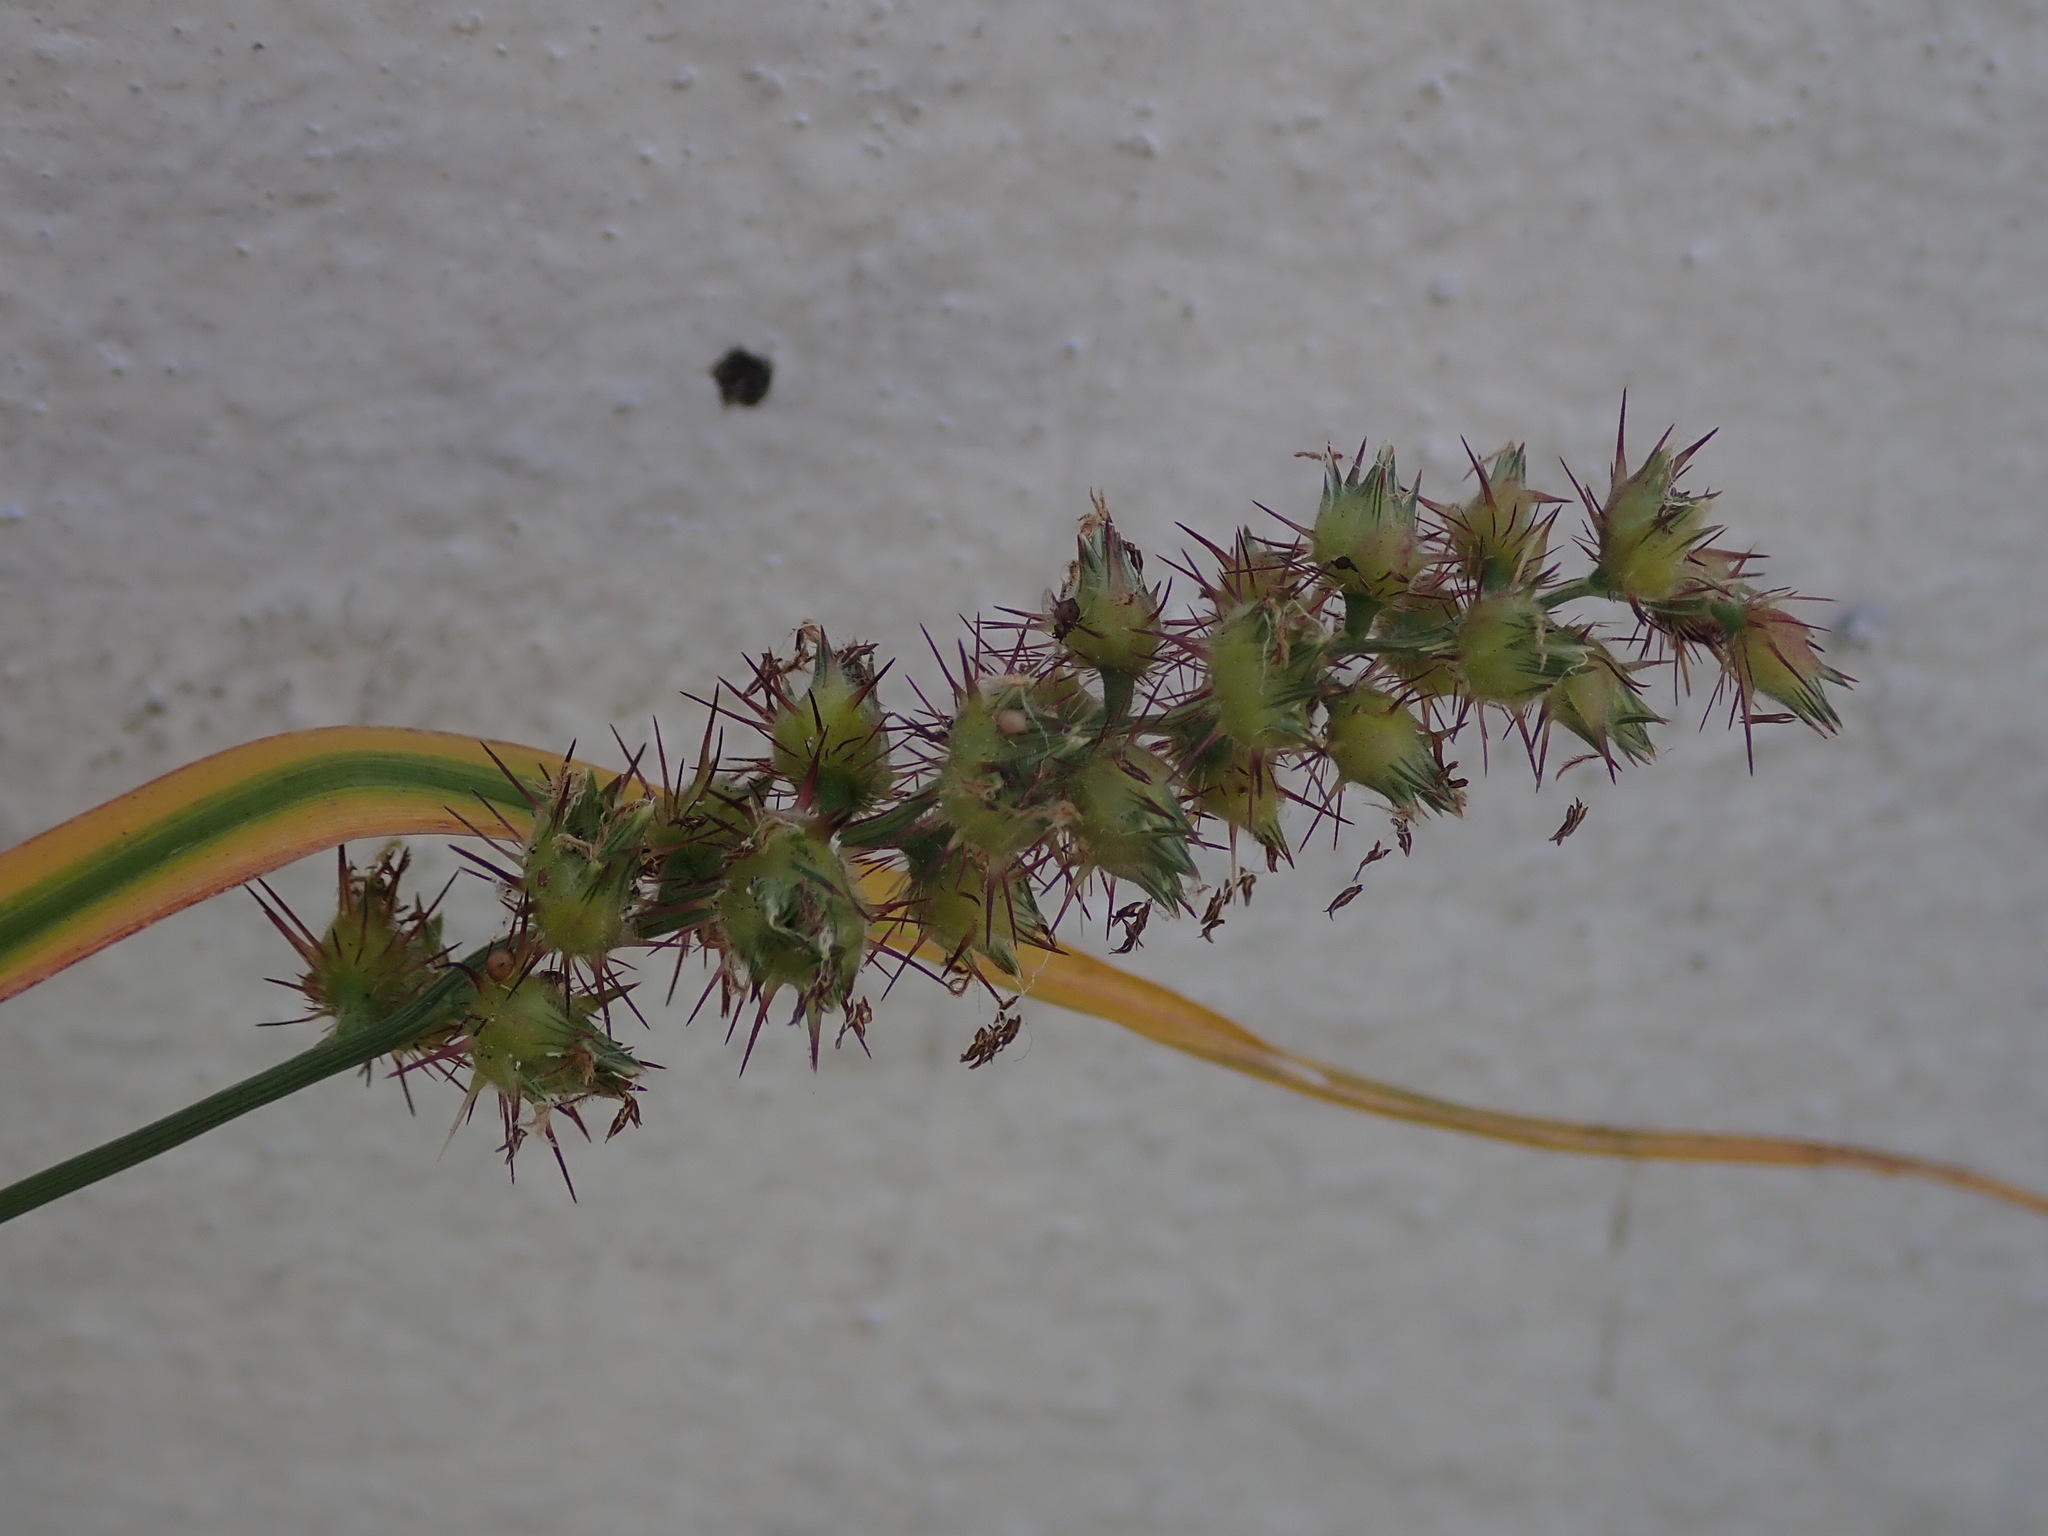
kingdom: Plantae
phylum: Tracheophyta
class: Liliopsida
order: Poales
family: Poaceae
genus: Cenchrus
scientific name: Cenchrus echinatus
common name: Southern sandbur
